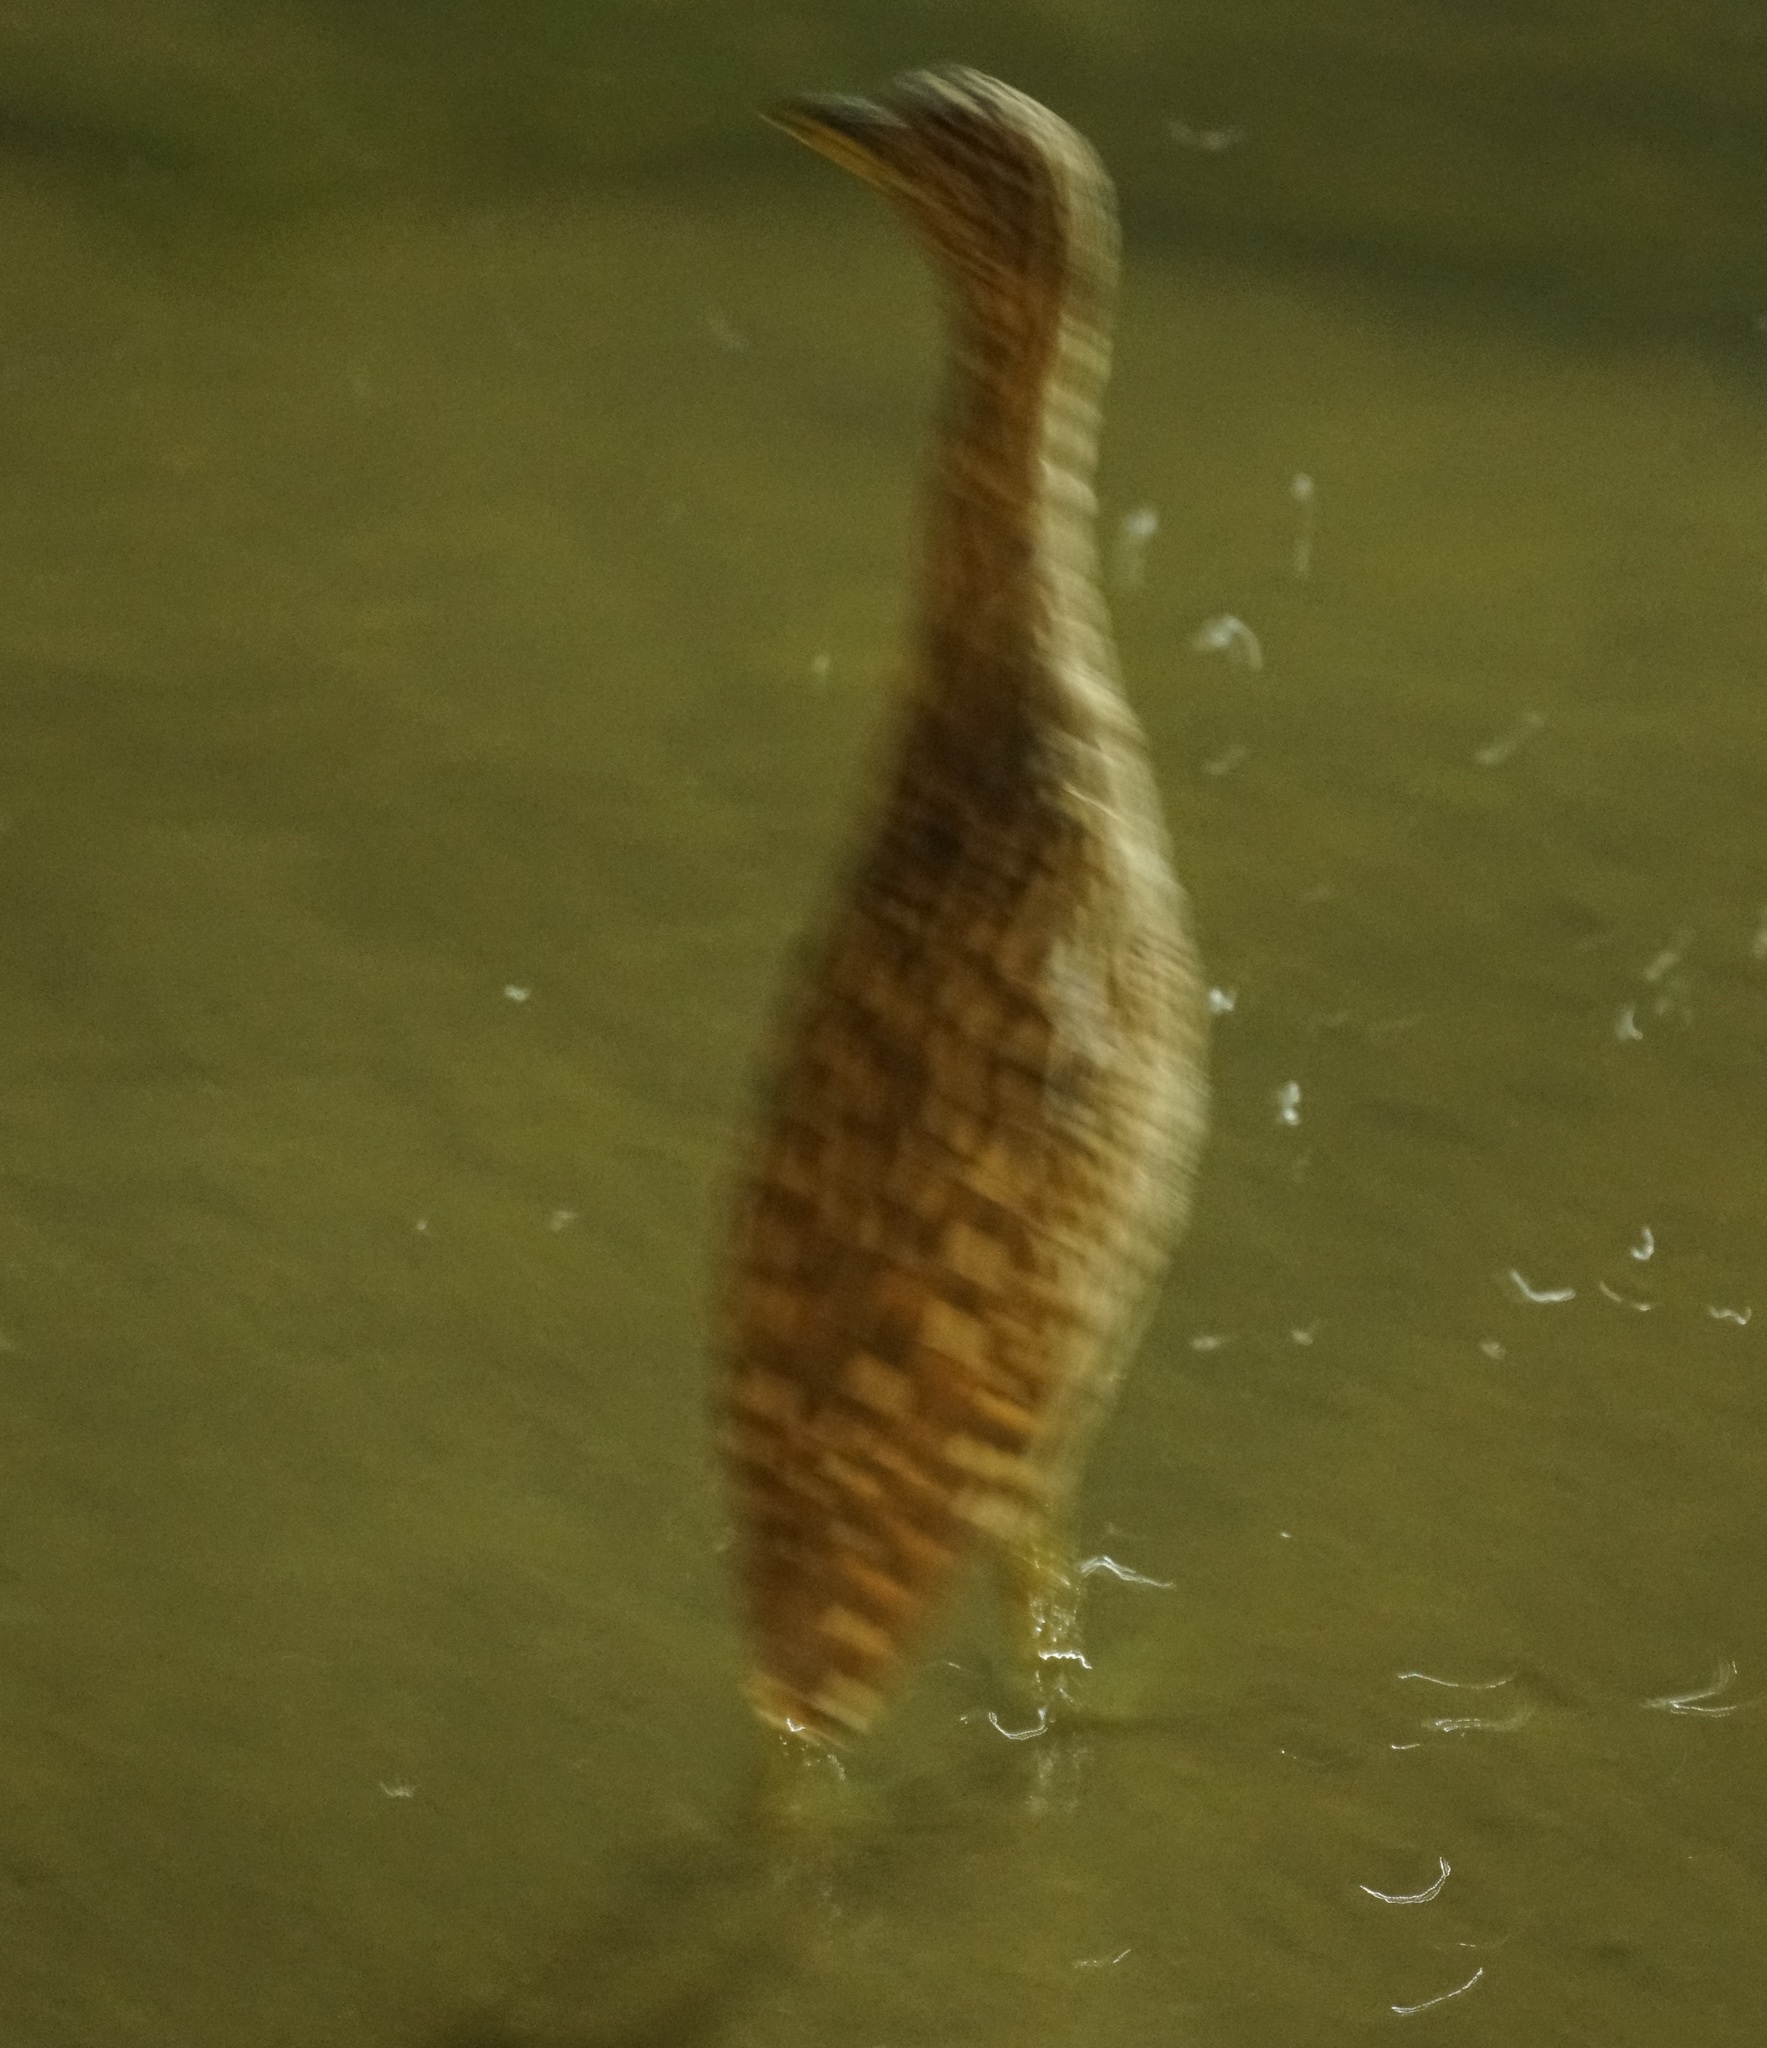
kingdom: Animalia
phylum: Chordata
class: Aves
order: Pelecaniformes
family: Ardeidae
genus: Nycticorax
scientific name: Nycticorax caledonicus
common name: Rufous night-heron
